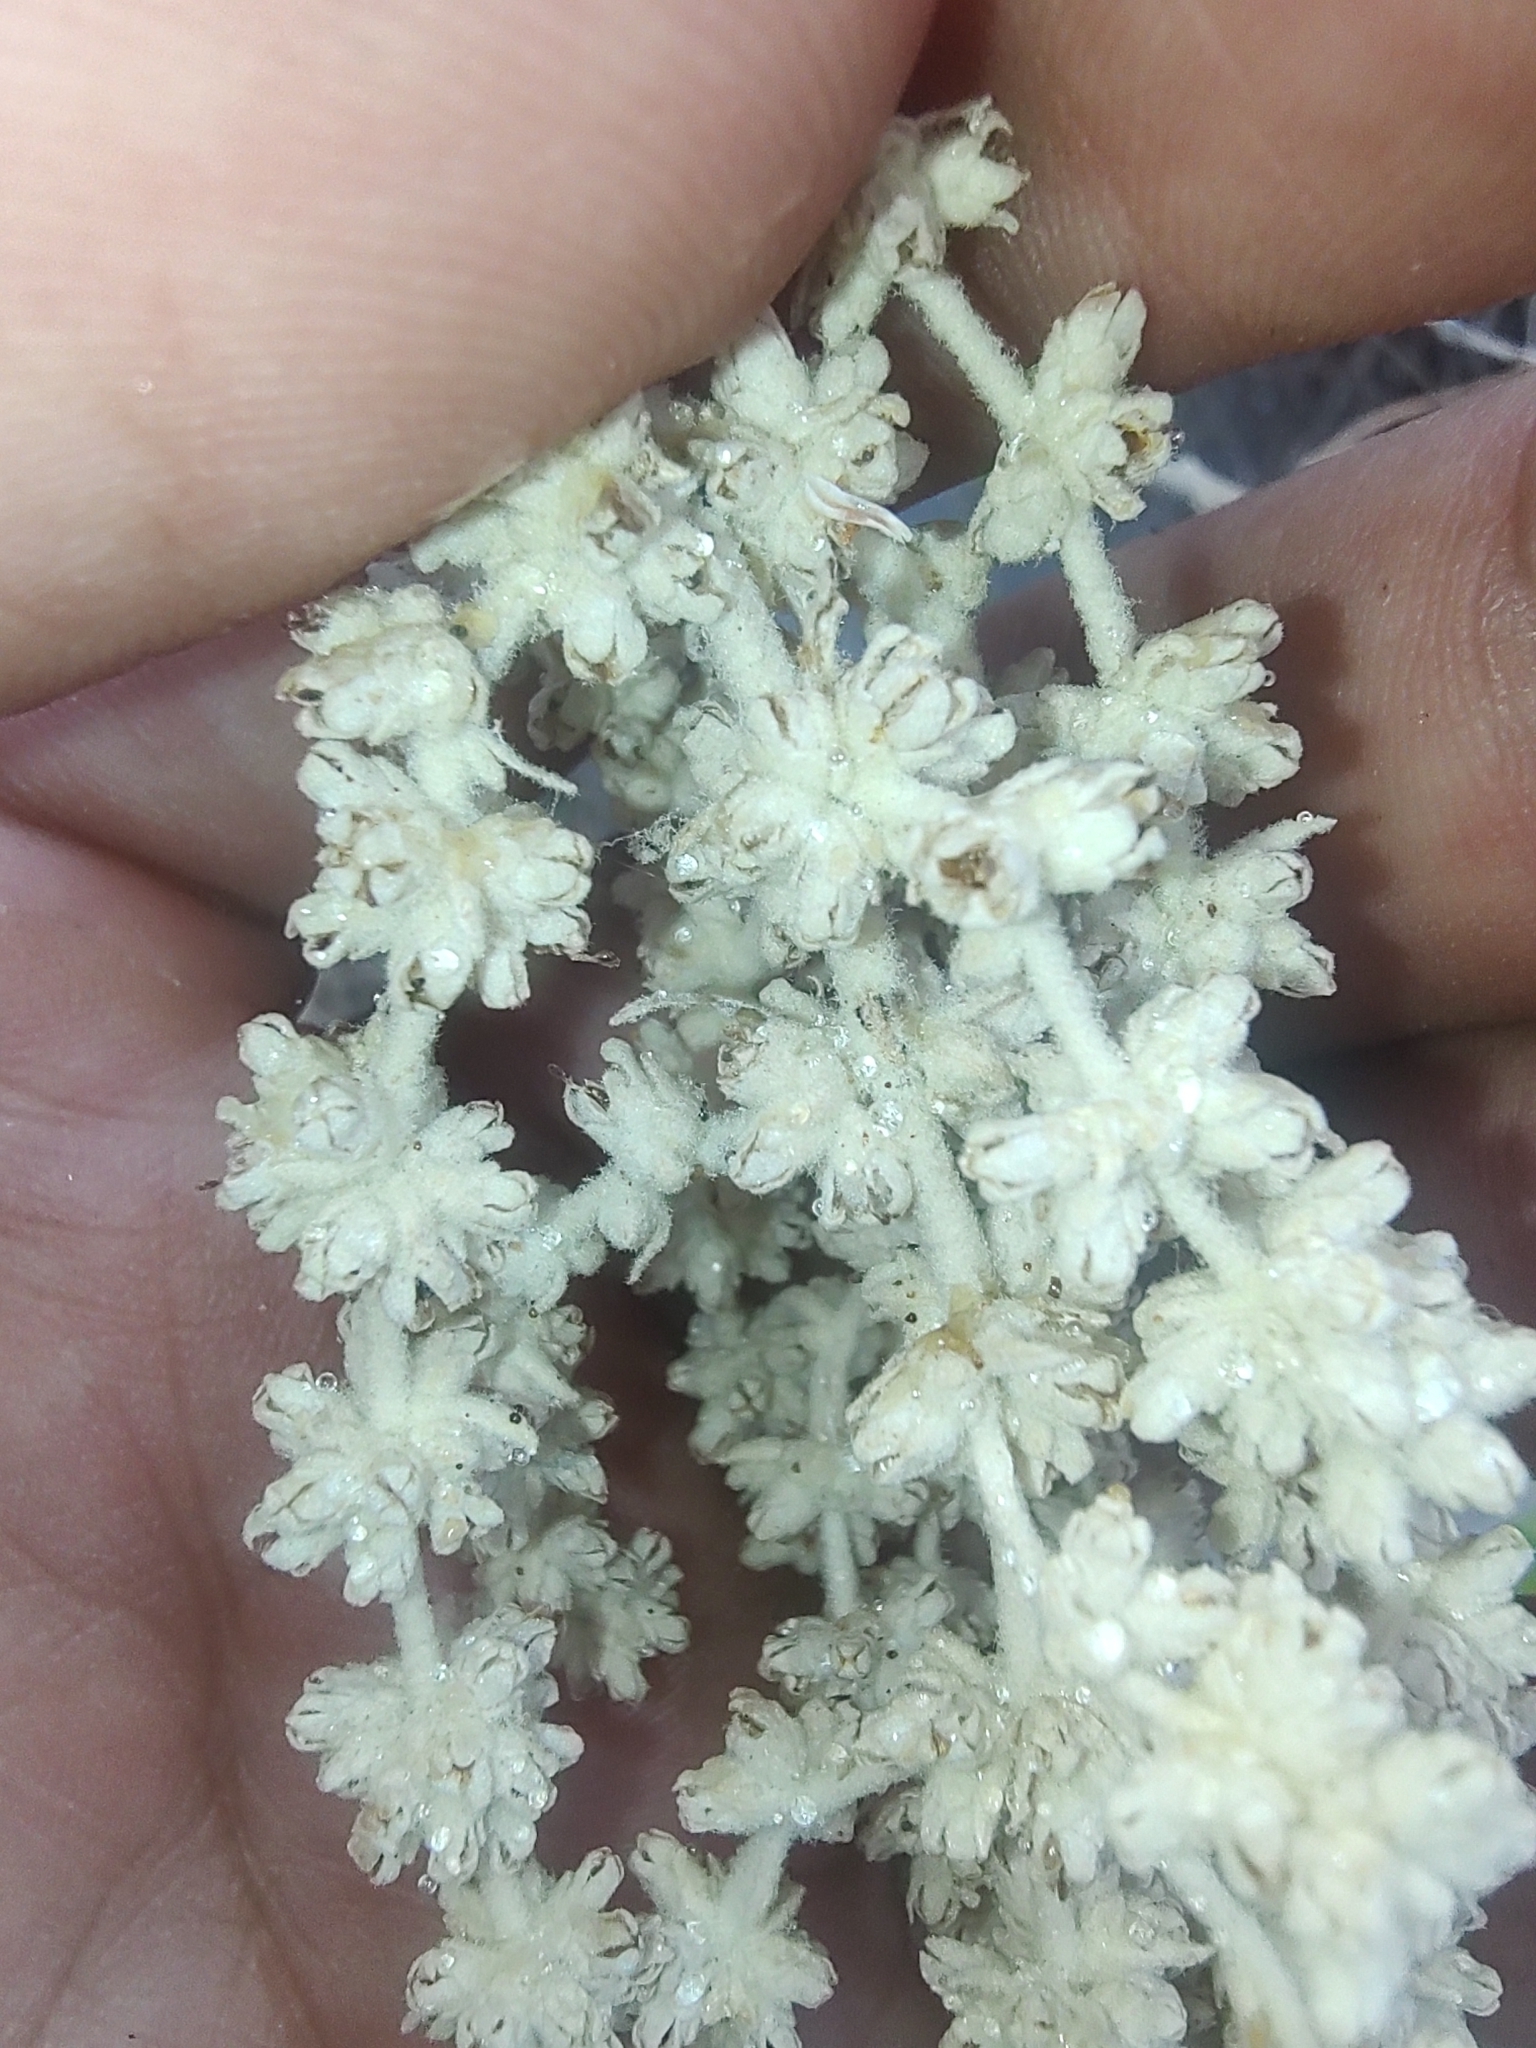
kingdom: Plantae
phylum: Tracheophyta
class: Magnoliopsida
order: Lamiales
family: Scrophulariaceae
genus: Buddleja
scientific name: Buddleja crotonoides
